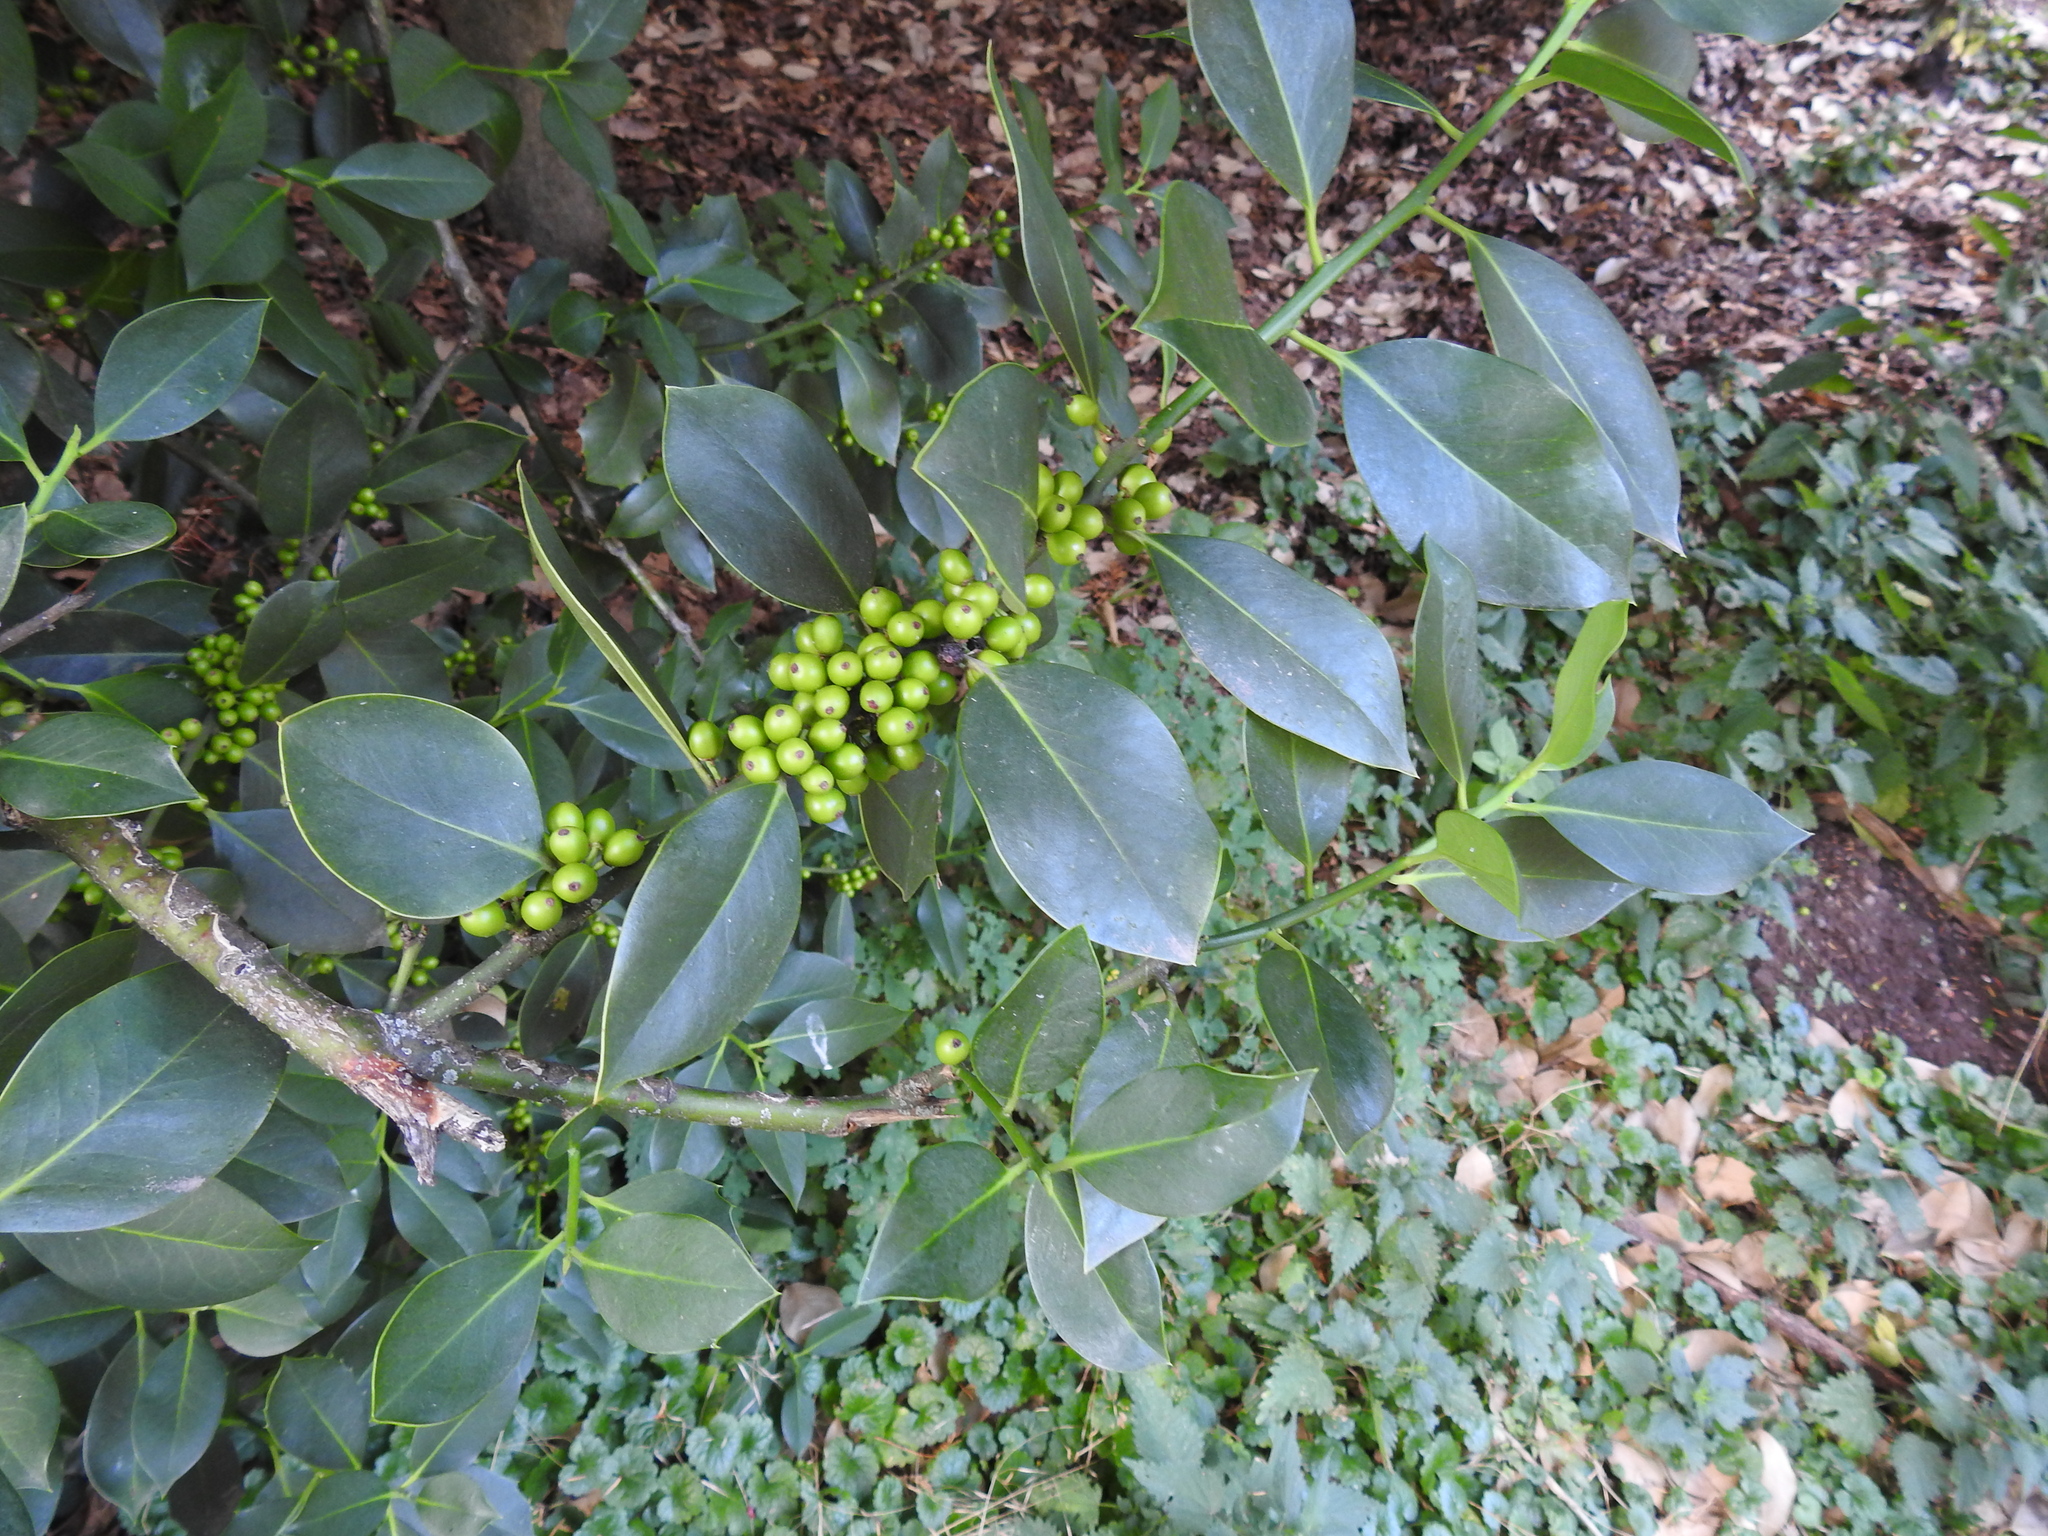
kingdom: Plantae
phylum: Tracheophyta
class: Magnoliopsida
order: Aquifoliales
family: Aquifoliaceae
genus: Ilex
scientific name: Ilex aquifolium
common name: English holly
